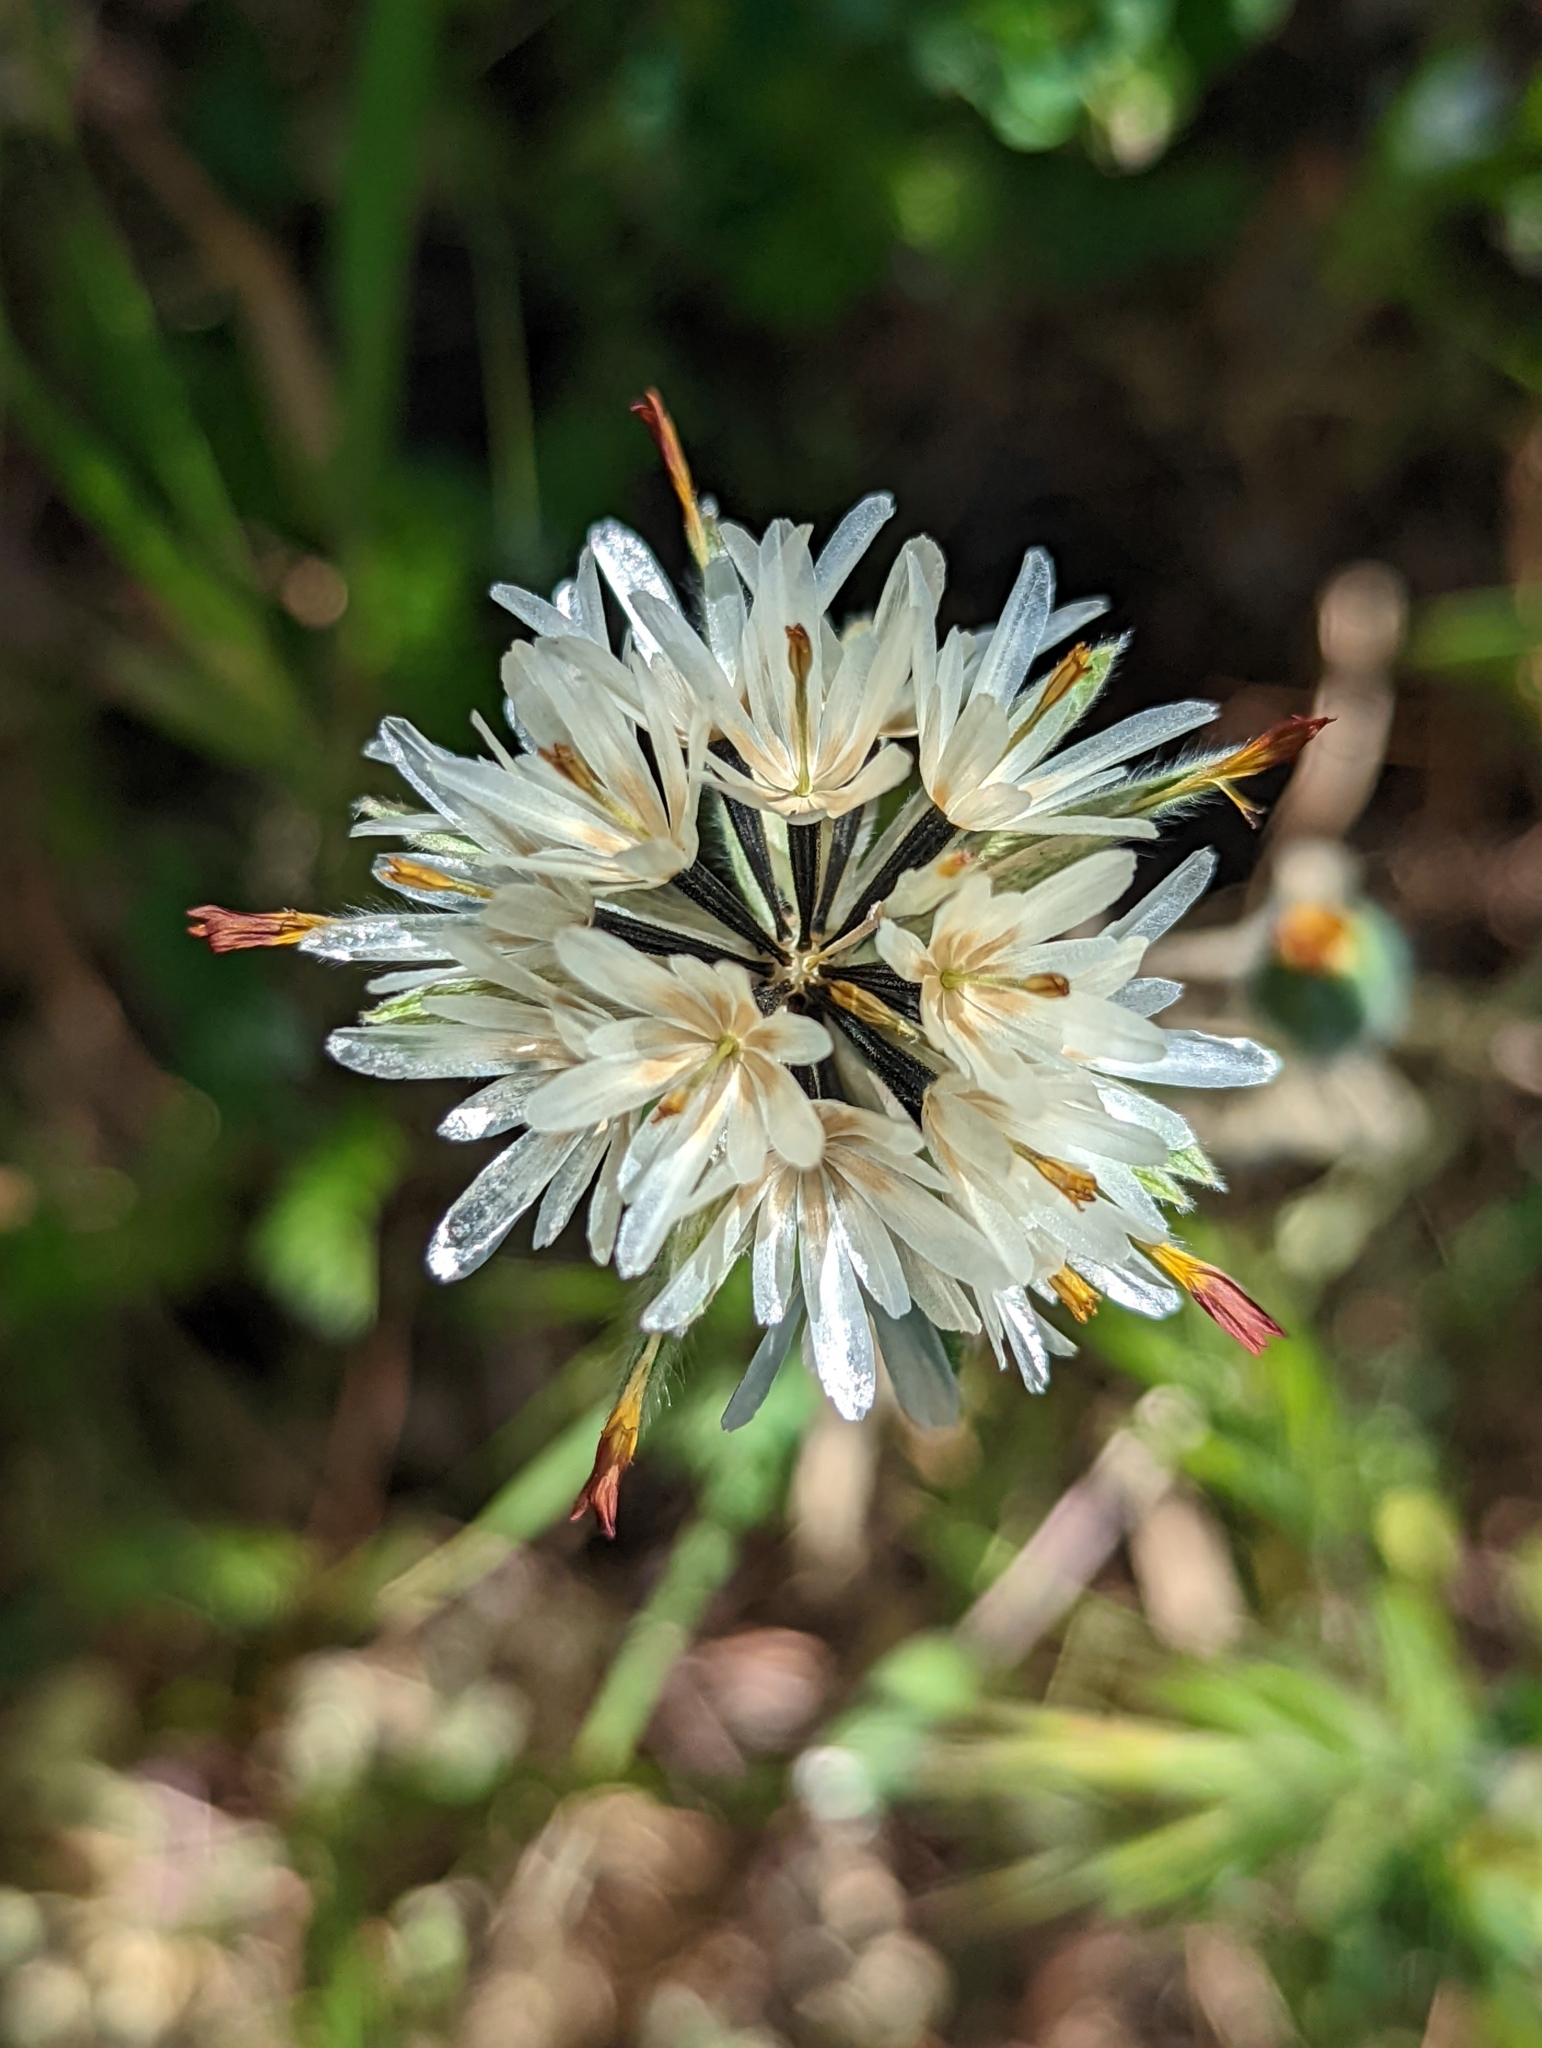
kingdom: Plantae
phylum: Tracheophyta
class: Magnoliopsida
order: Asterales
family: Asteraceae
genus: Achyrachaena
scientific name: Achyrachaena mollis
